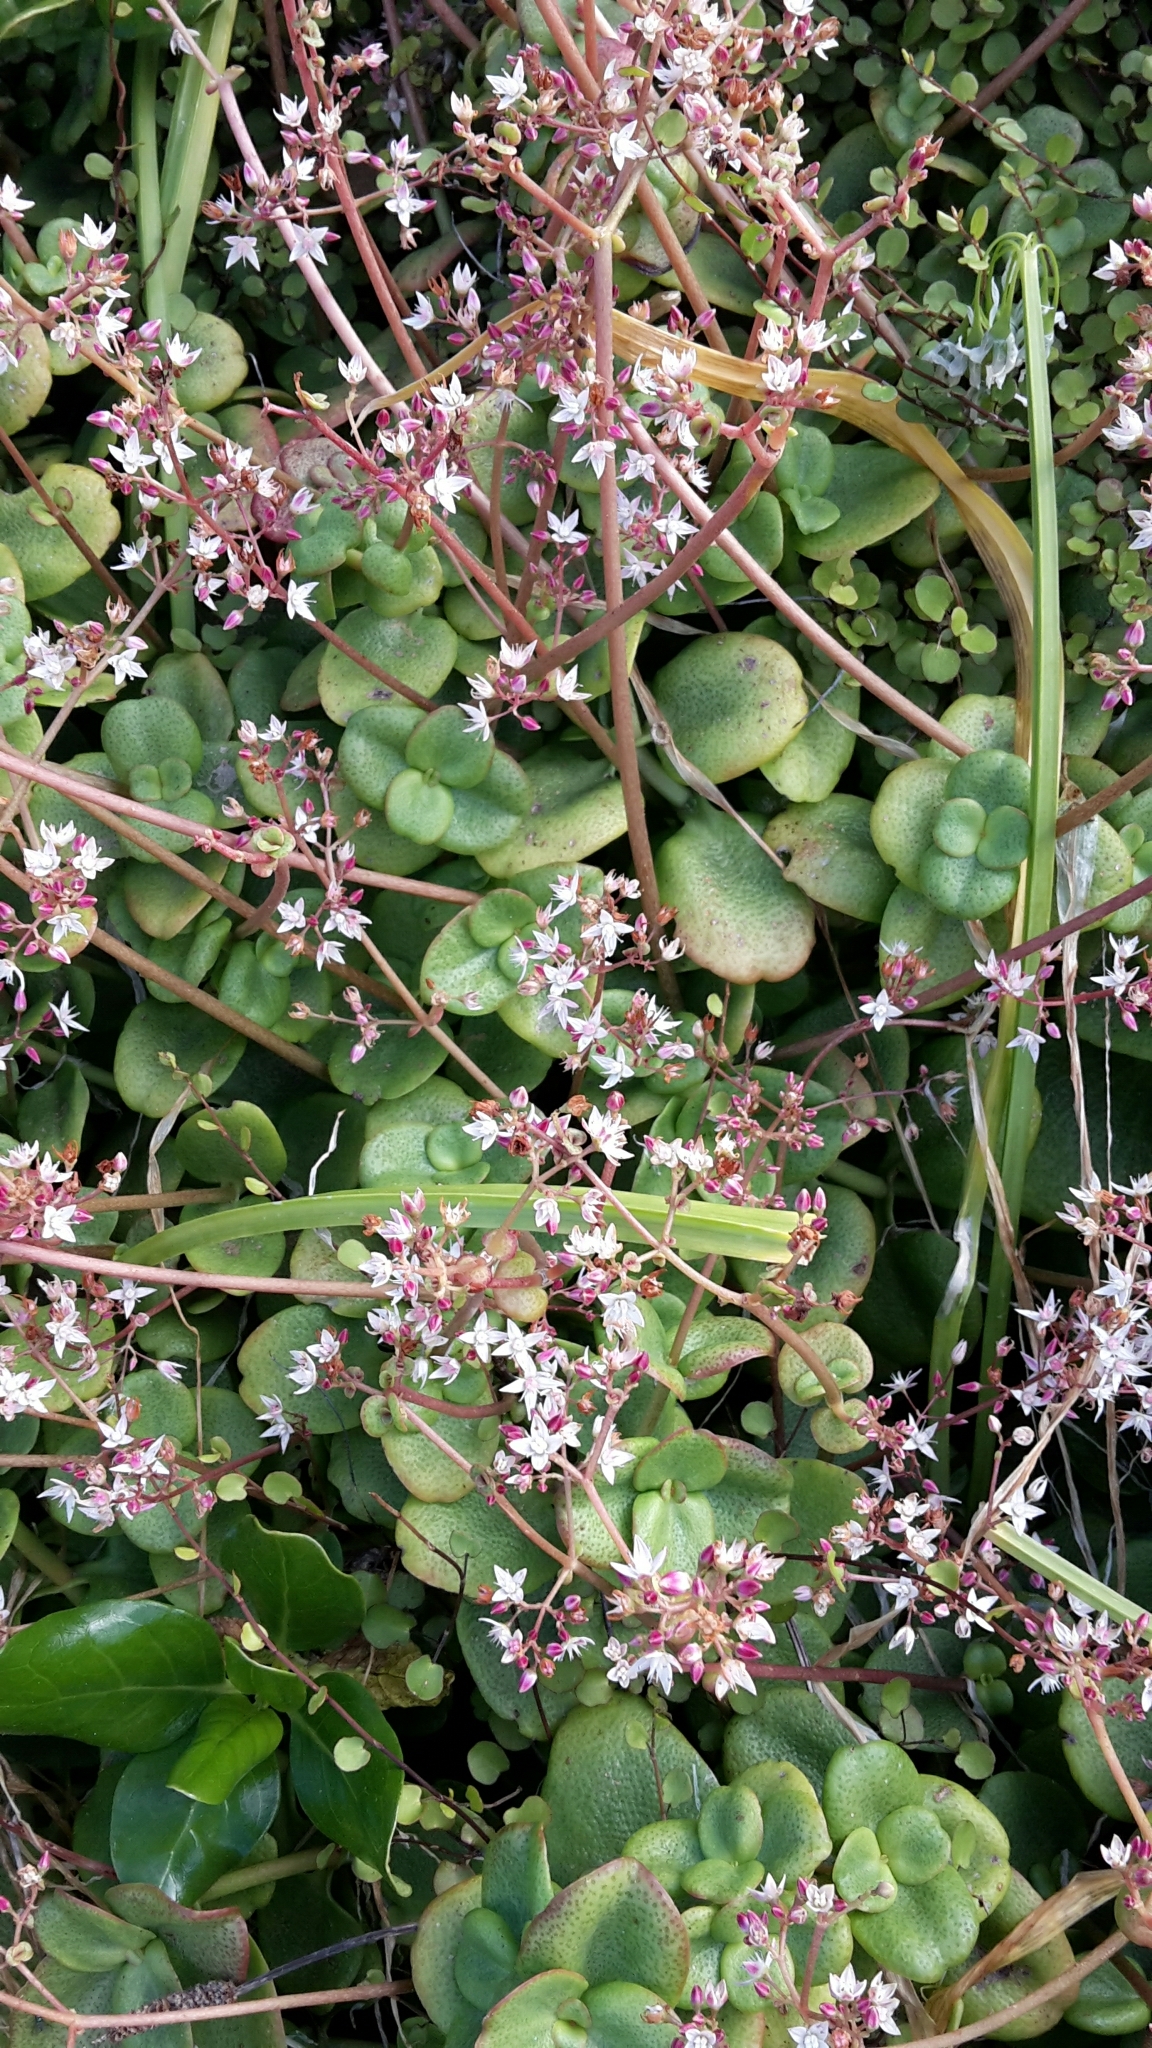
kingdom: Plantae
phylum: Tracheophyta
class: Magnoliopsida
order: Saxifragales
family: Crassulaceae
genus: Crassula
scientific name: Crassula multicava
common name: Cape province pygmyweed
